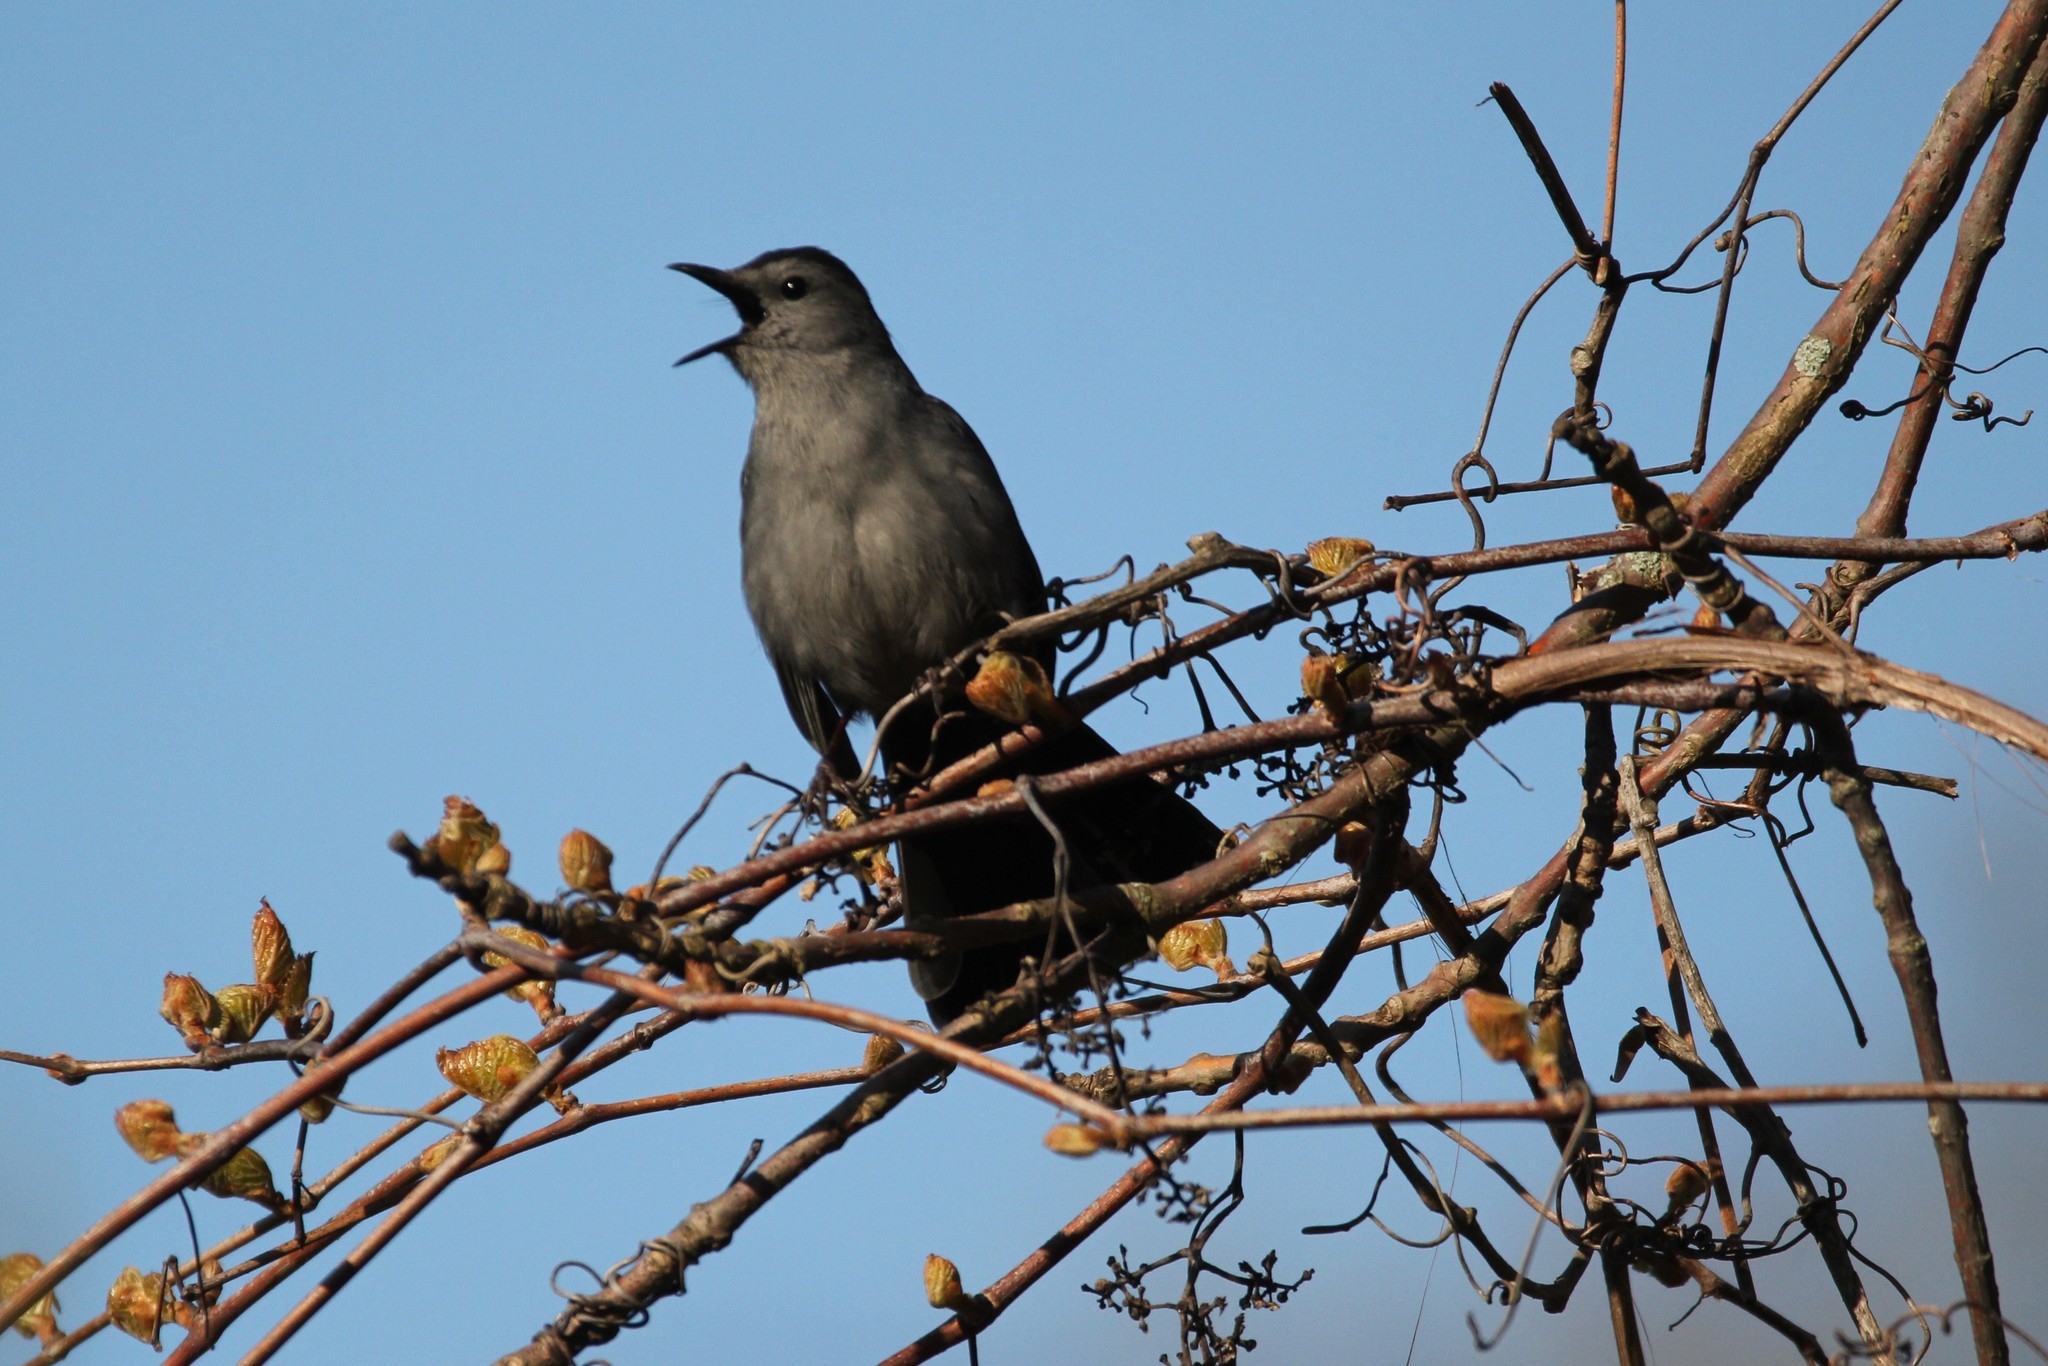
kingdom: Animalia
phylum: Chordata
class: Aves
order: Passeriformes
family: Mimidae
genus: Dumetella
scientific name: Dumetella carolinensis
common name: Gray catbird
